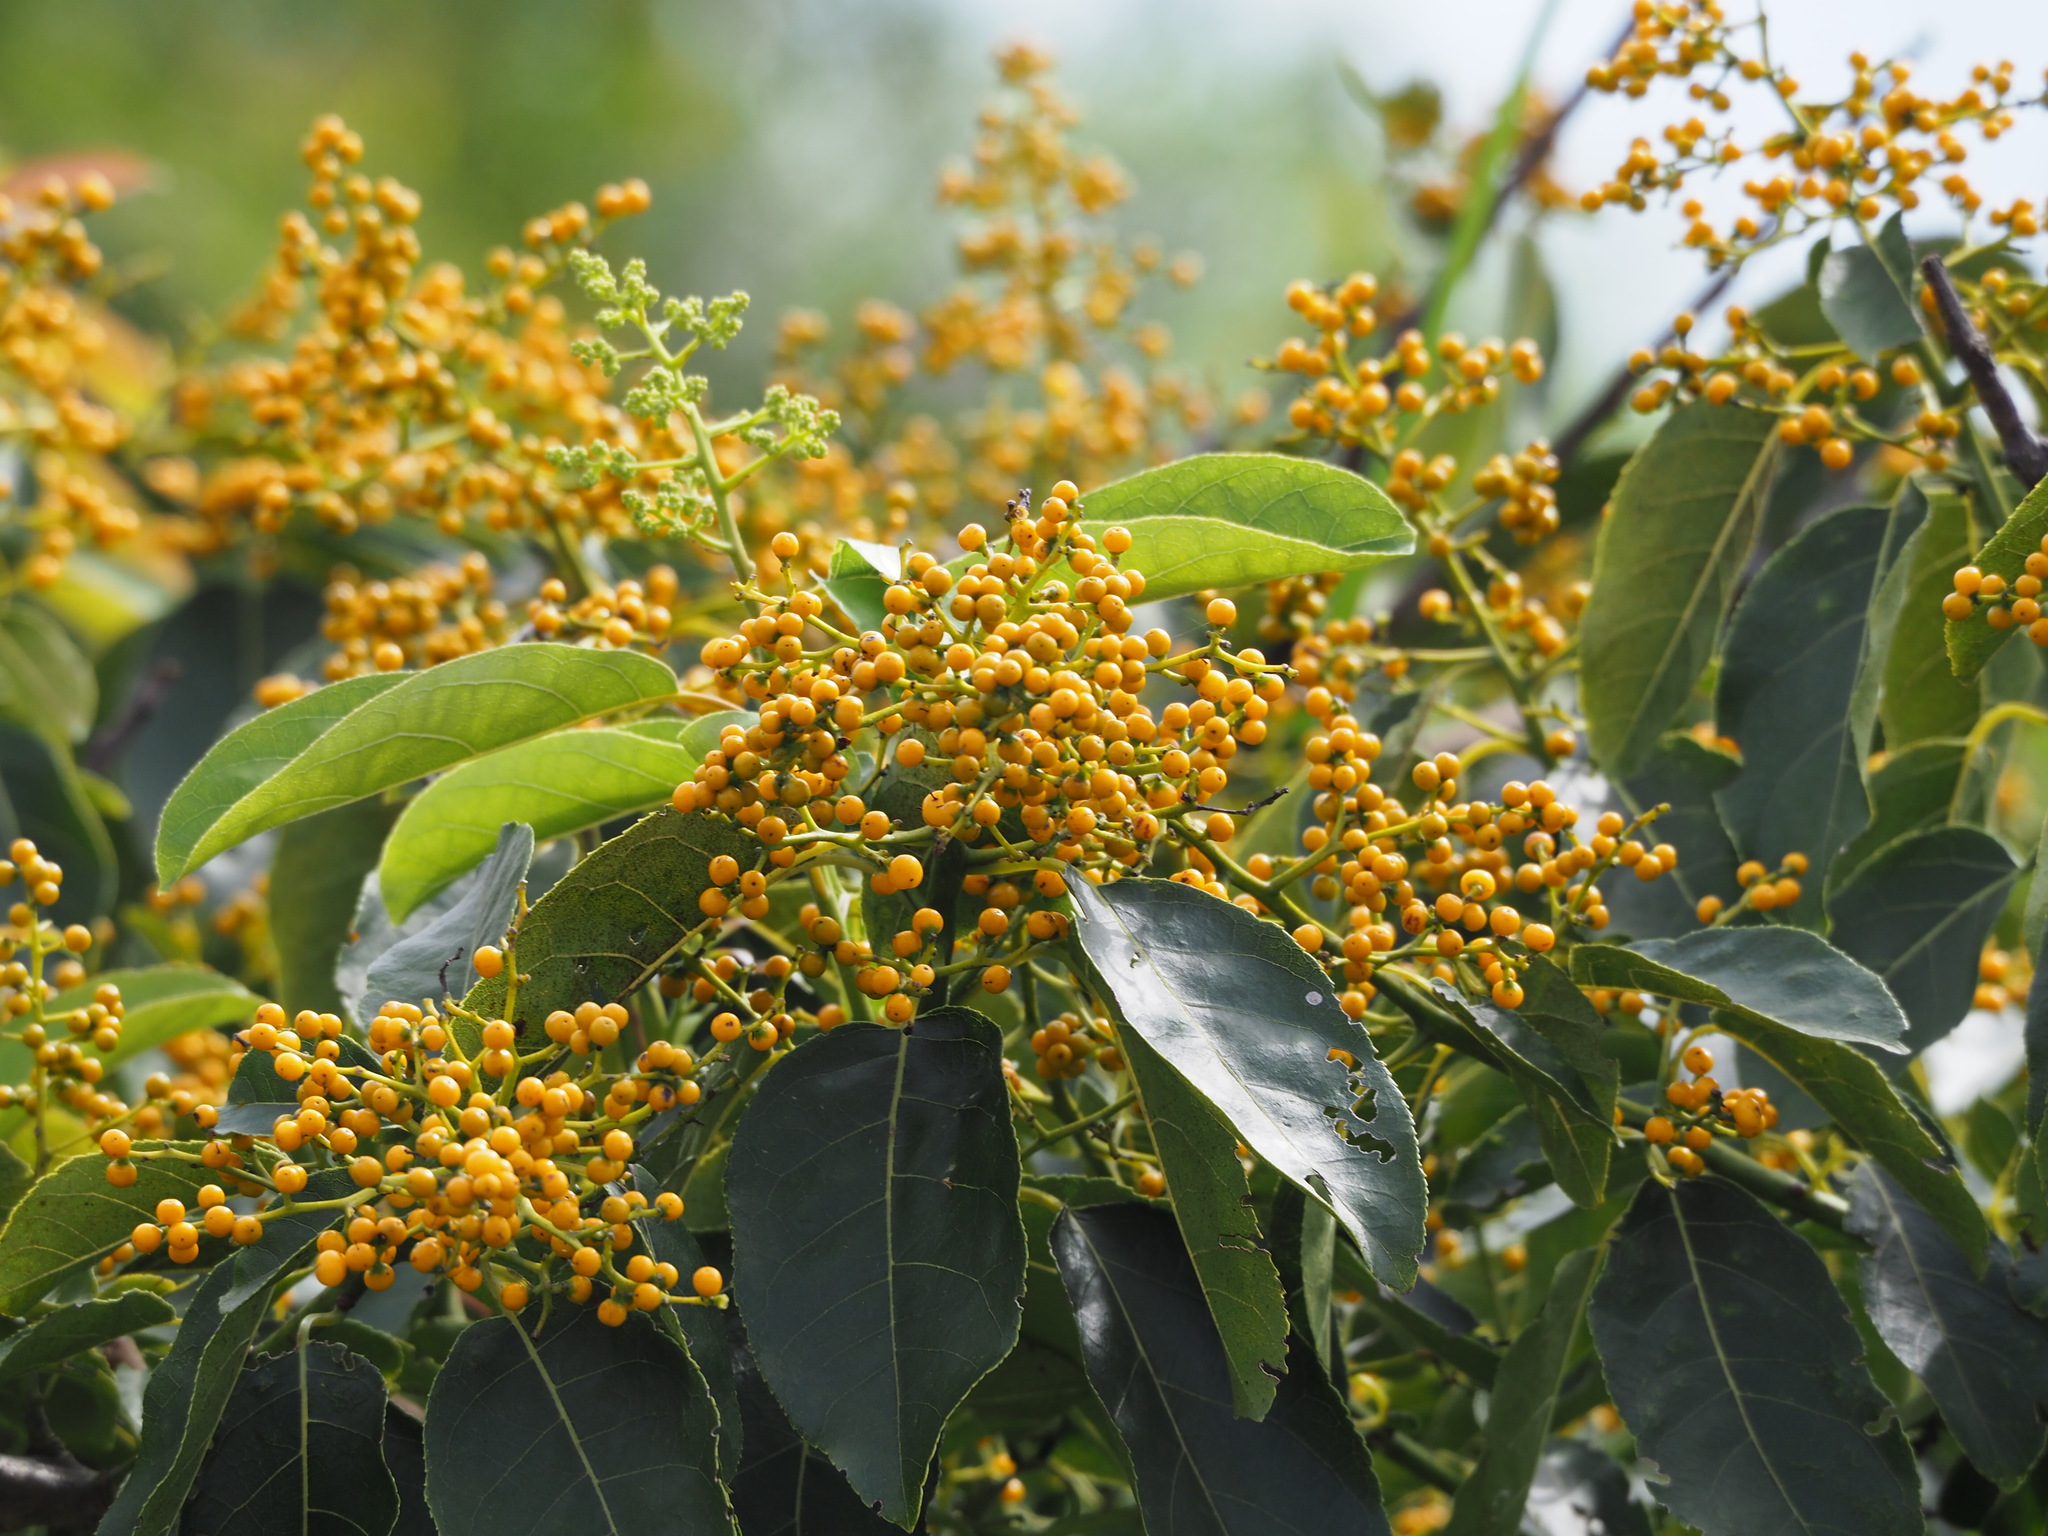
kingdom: Plantae
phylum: Tracheophyta
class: Magnoliopsida
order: Boraginales
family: Ehretiaceae
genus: Ehretia
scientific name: Ehretia acuminata
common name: Kodo wood
